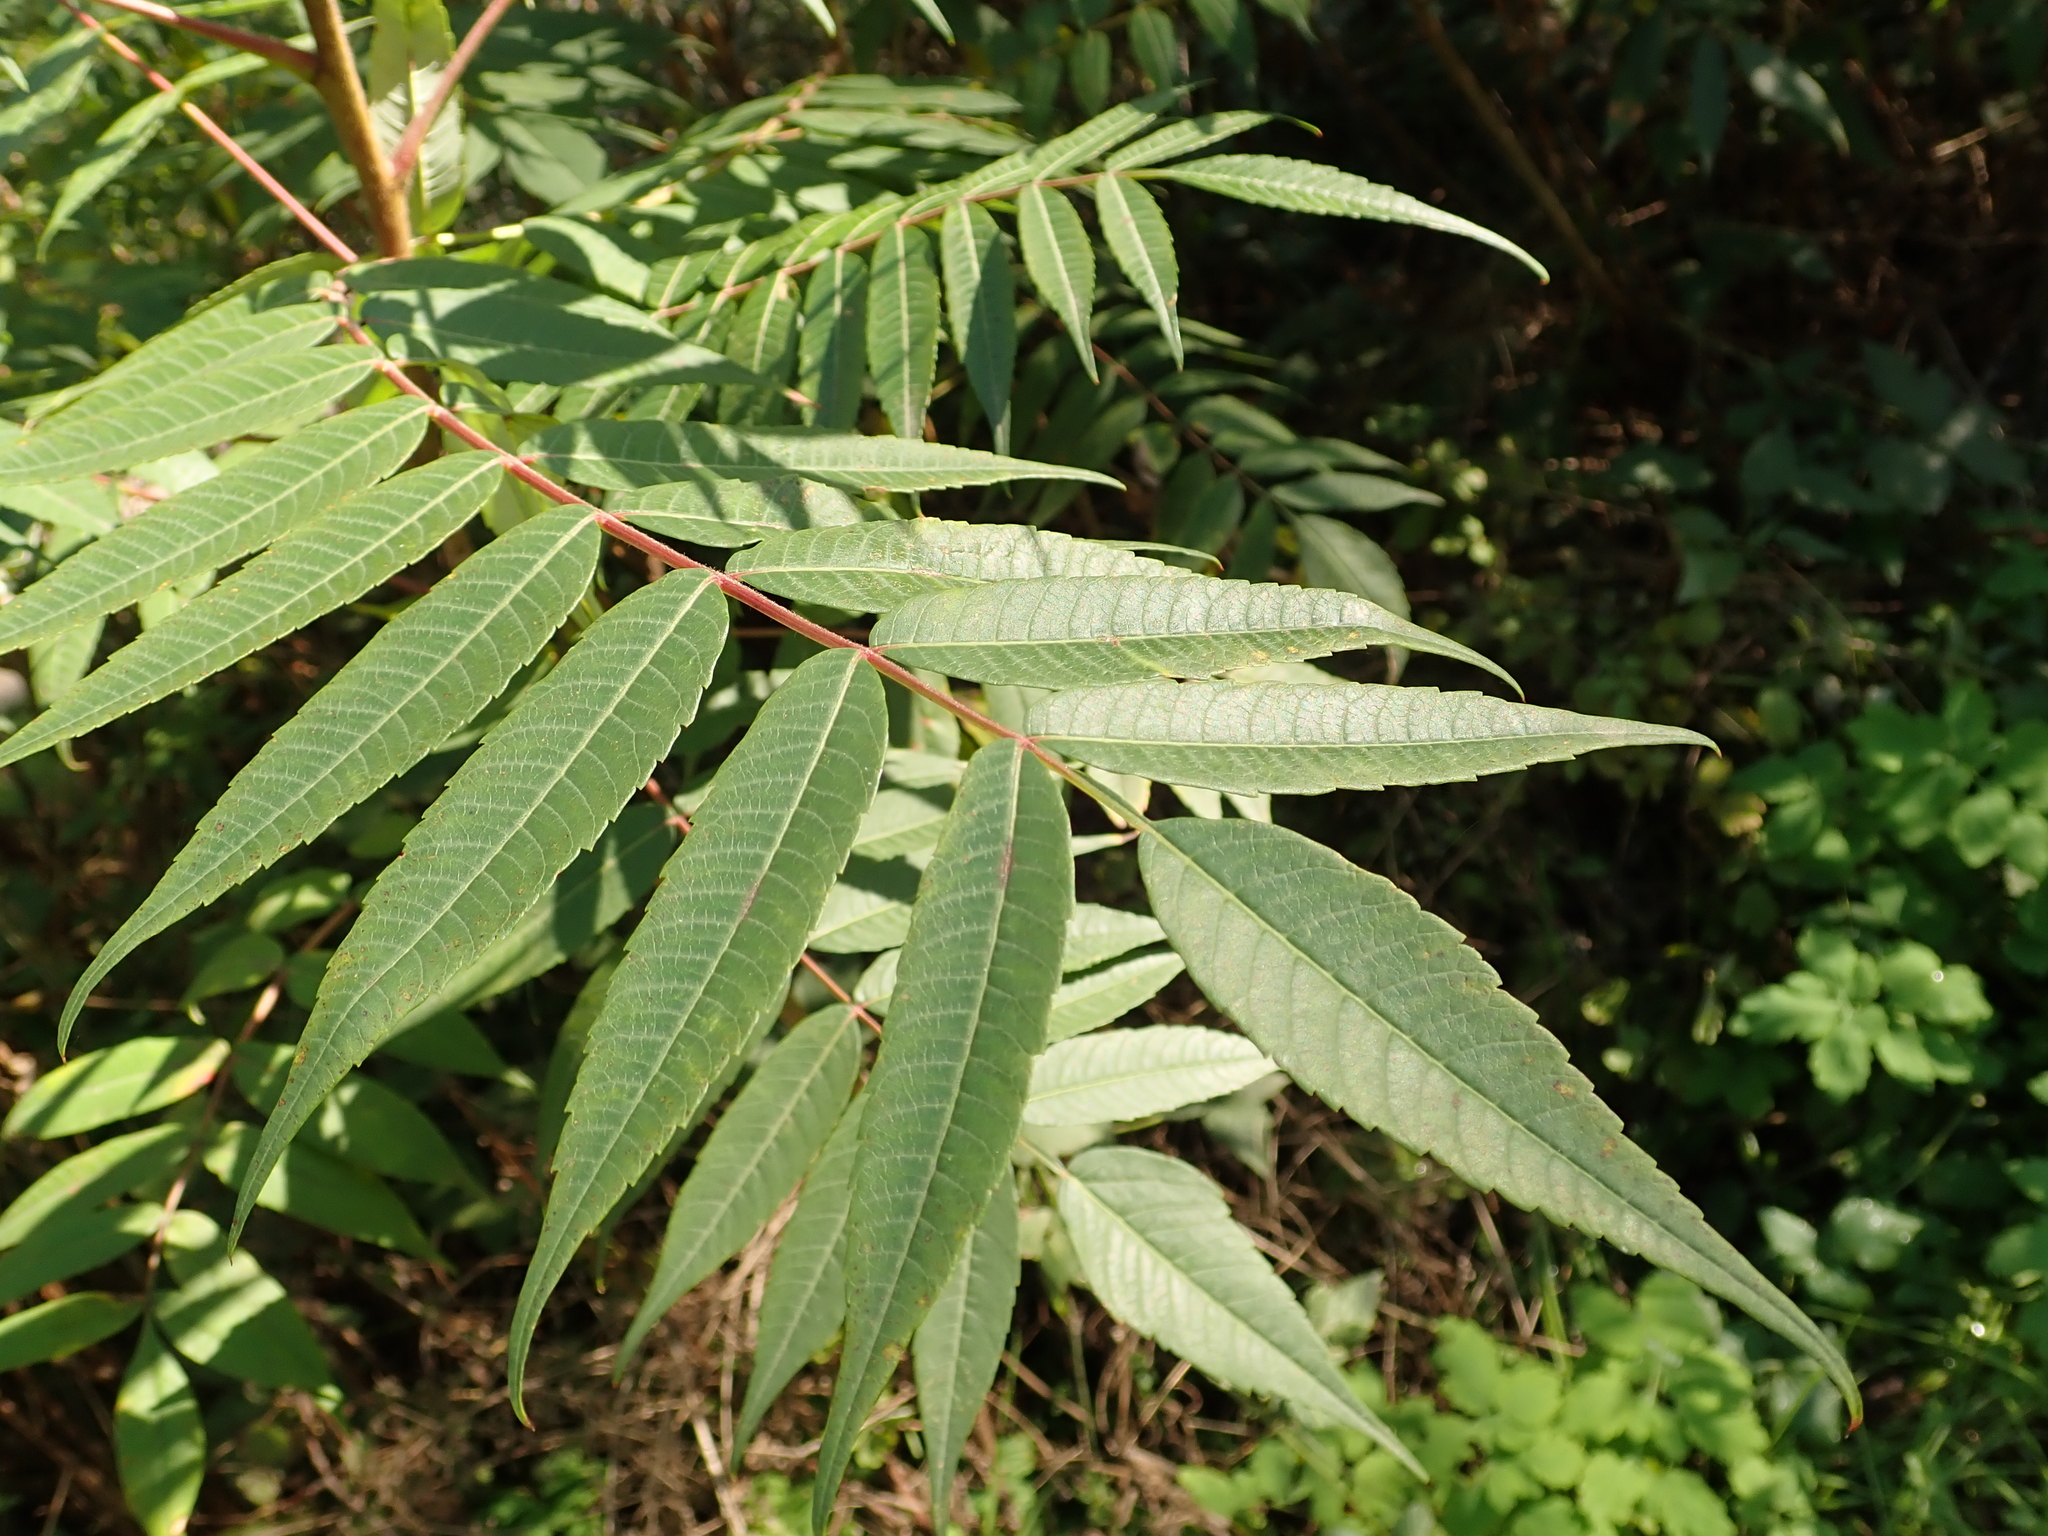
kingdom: Plantae
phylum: Tracheophyta
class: Magnoliopsida
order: Sapindales
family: Anacardiaceae
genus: Rhus
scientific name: Rhus typhina
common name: Staghorn sumac
